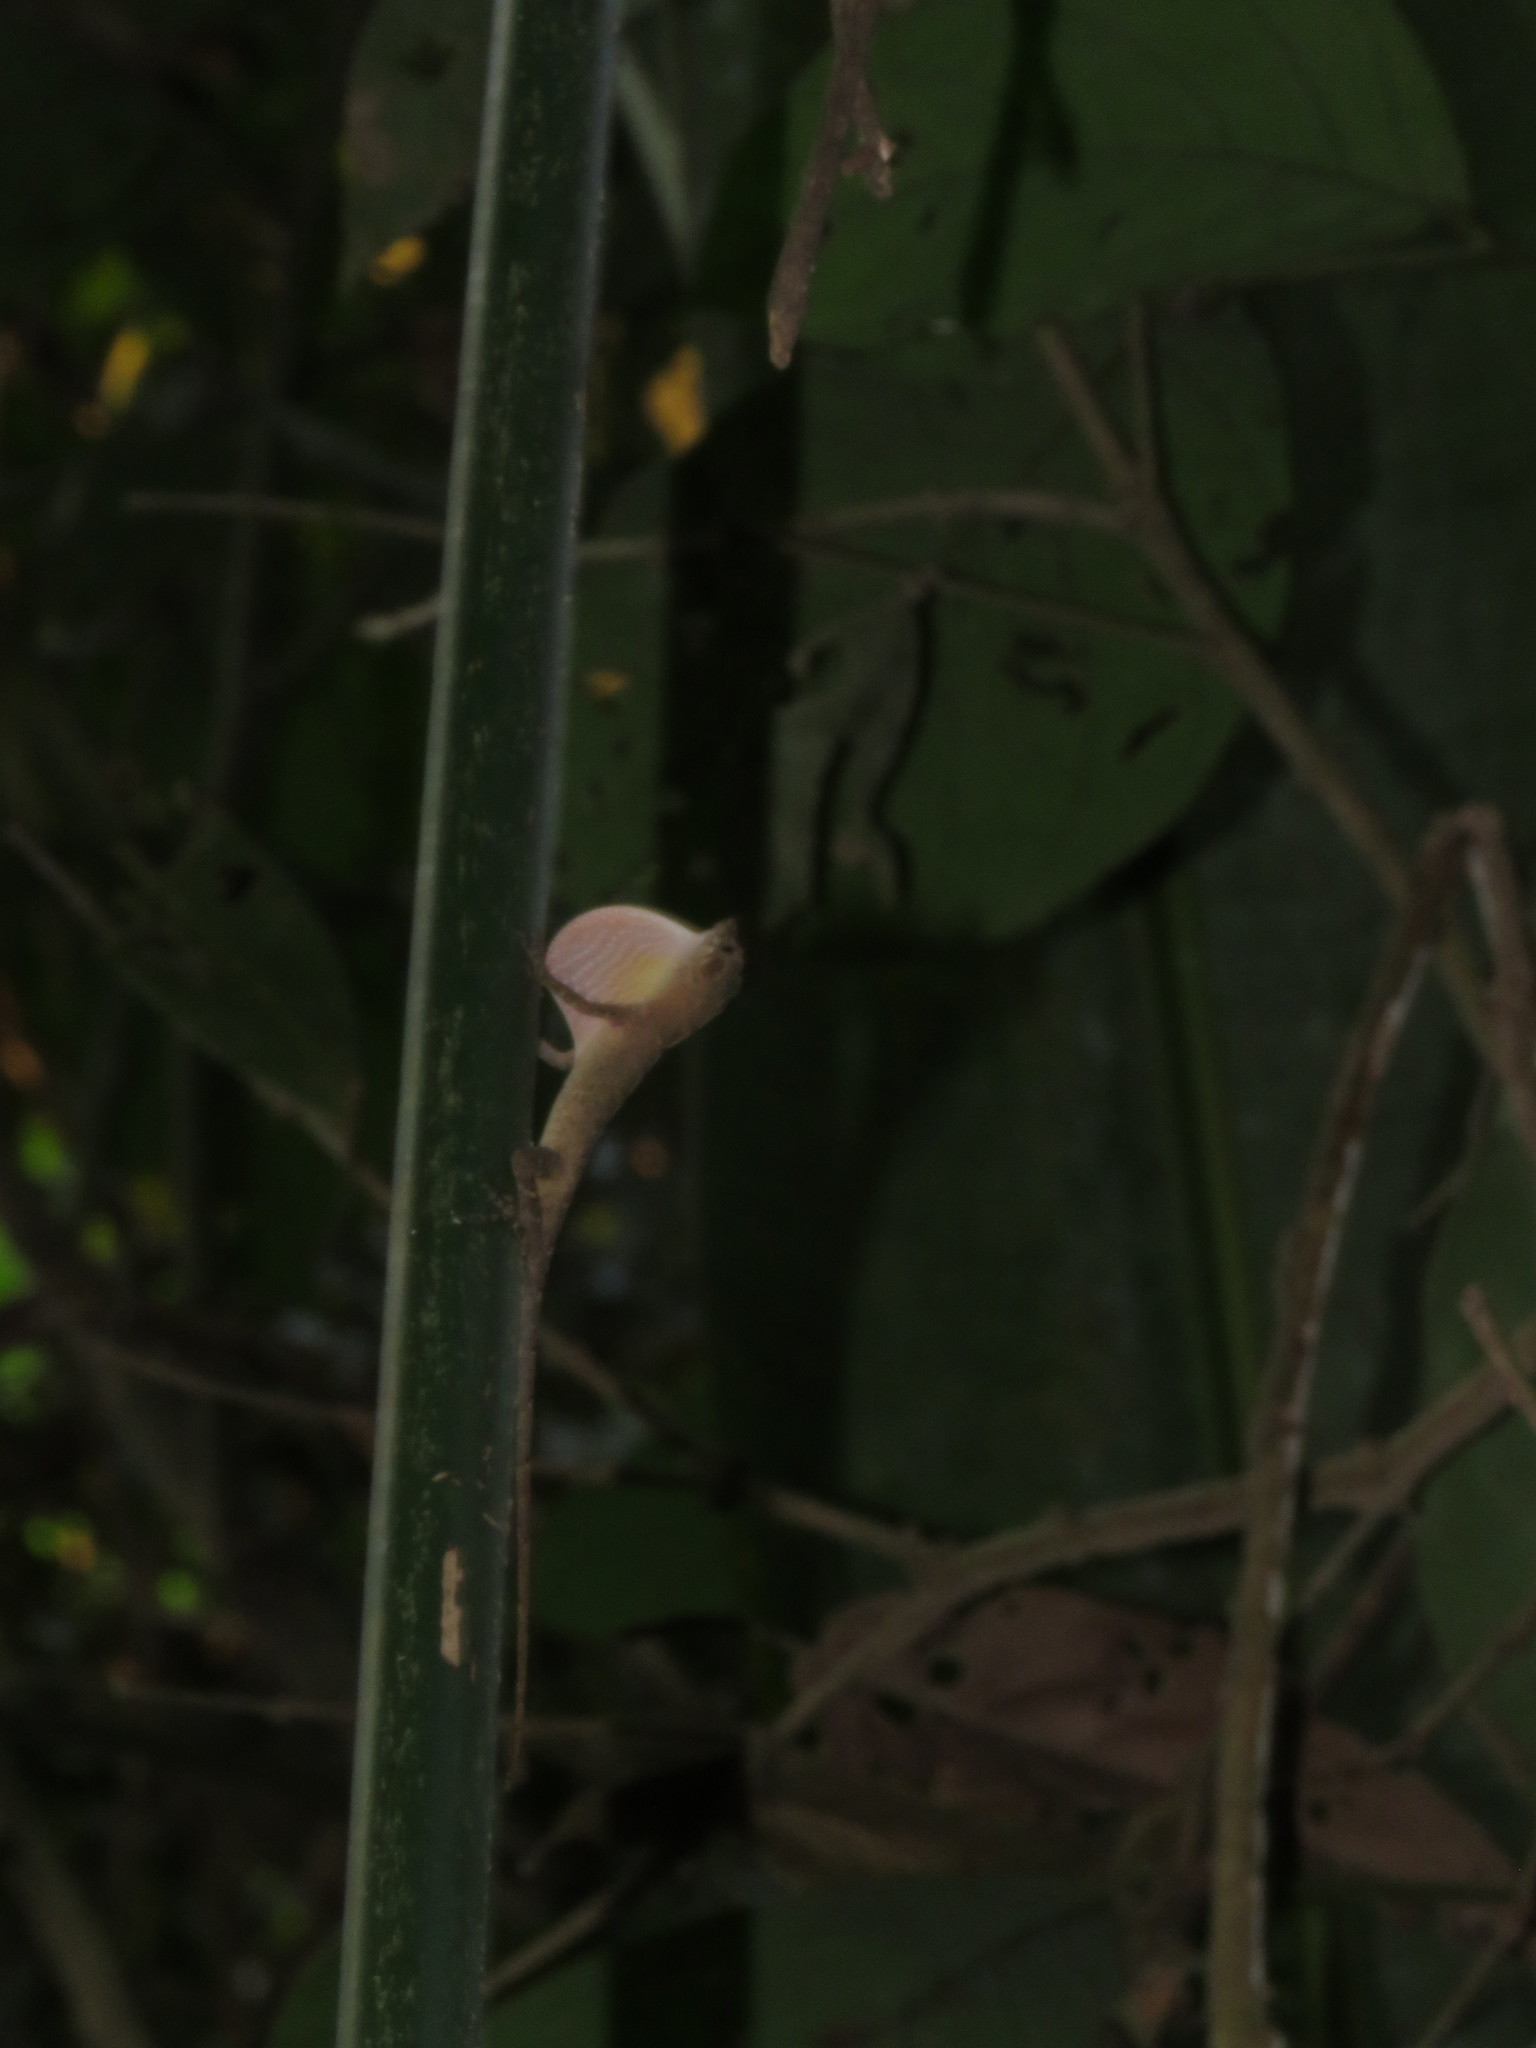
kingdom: Animalia
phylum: Chordata
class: Squamata
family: Dactyloidae
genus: Anolis
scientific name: Anolis fuscoauratus
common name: Brown-eared anole
